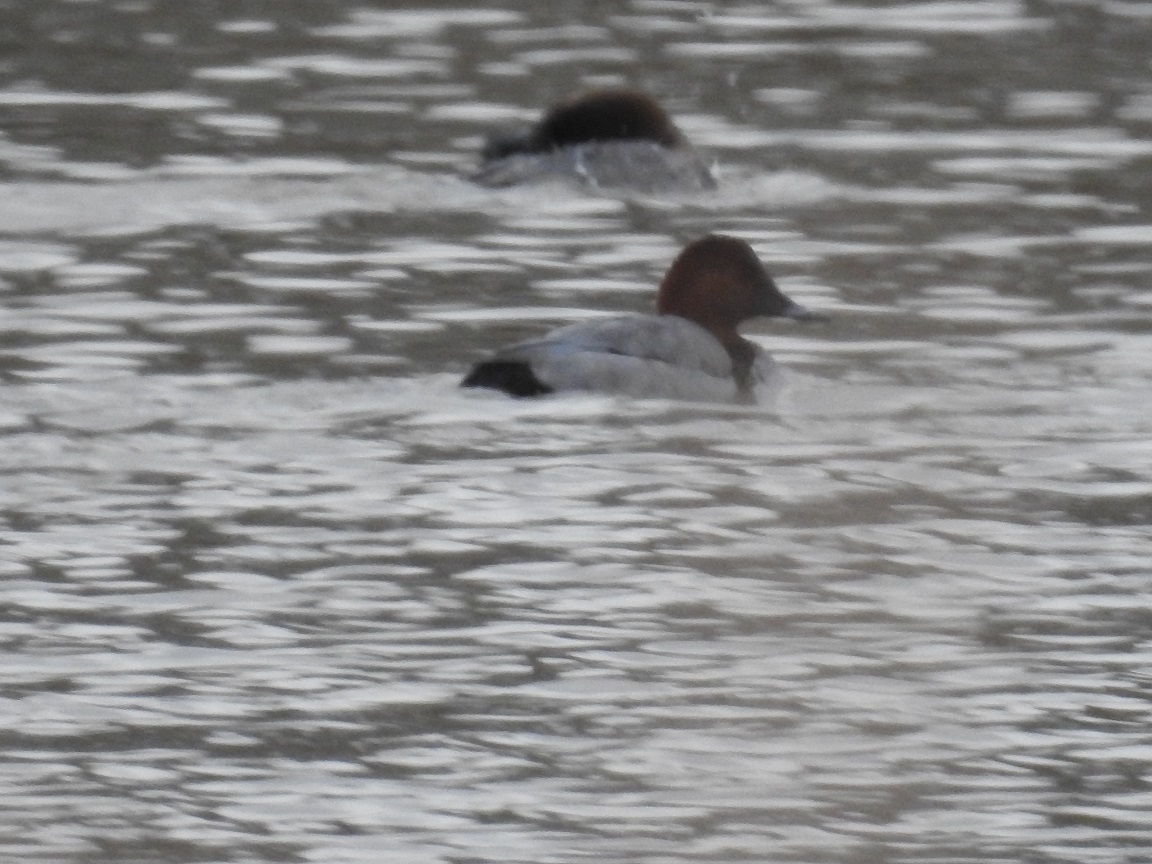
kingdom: Animalia
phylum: Chordata
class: Aves
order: Anseriformes
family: Anatidae
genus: Aythya
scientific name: Aythya ferina
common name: Common pochard
